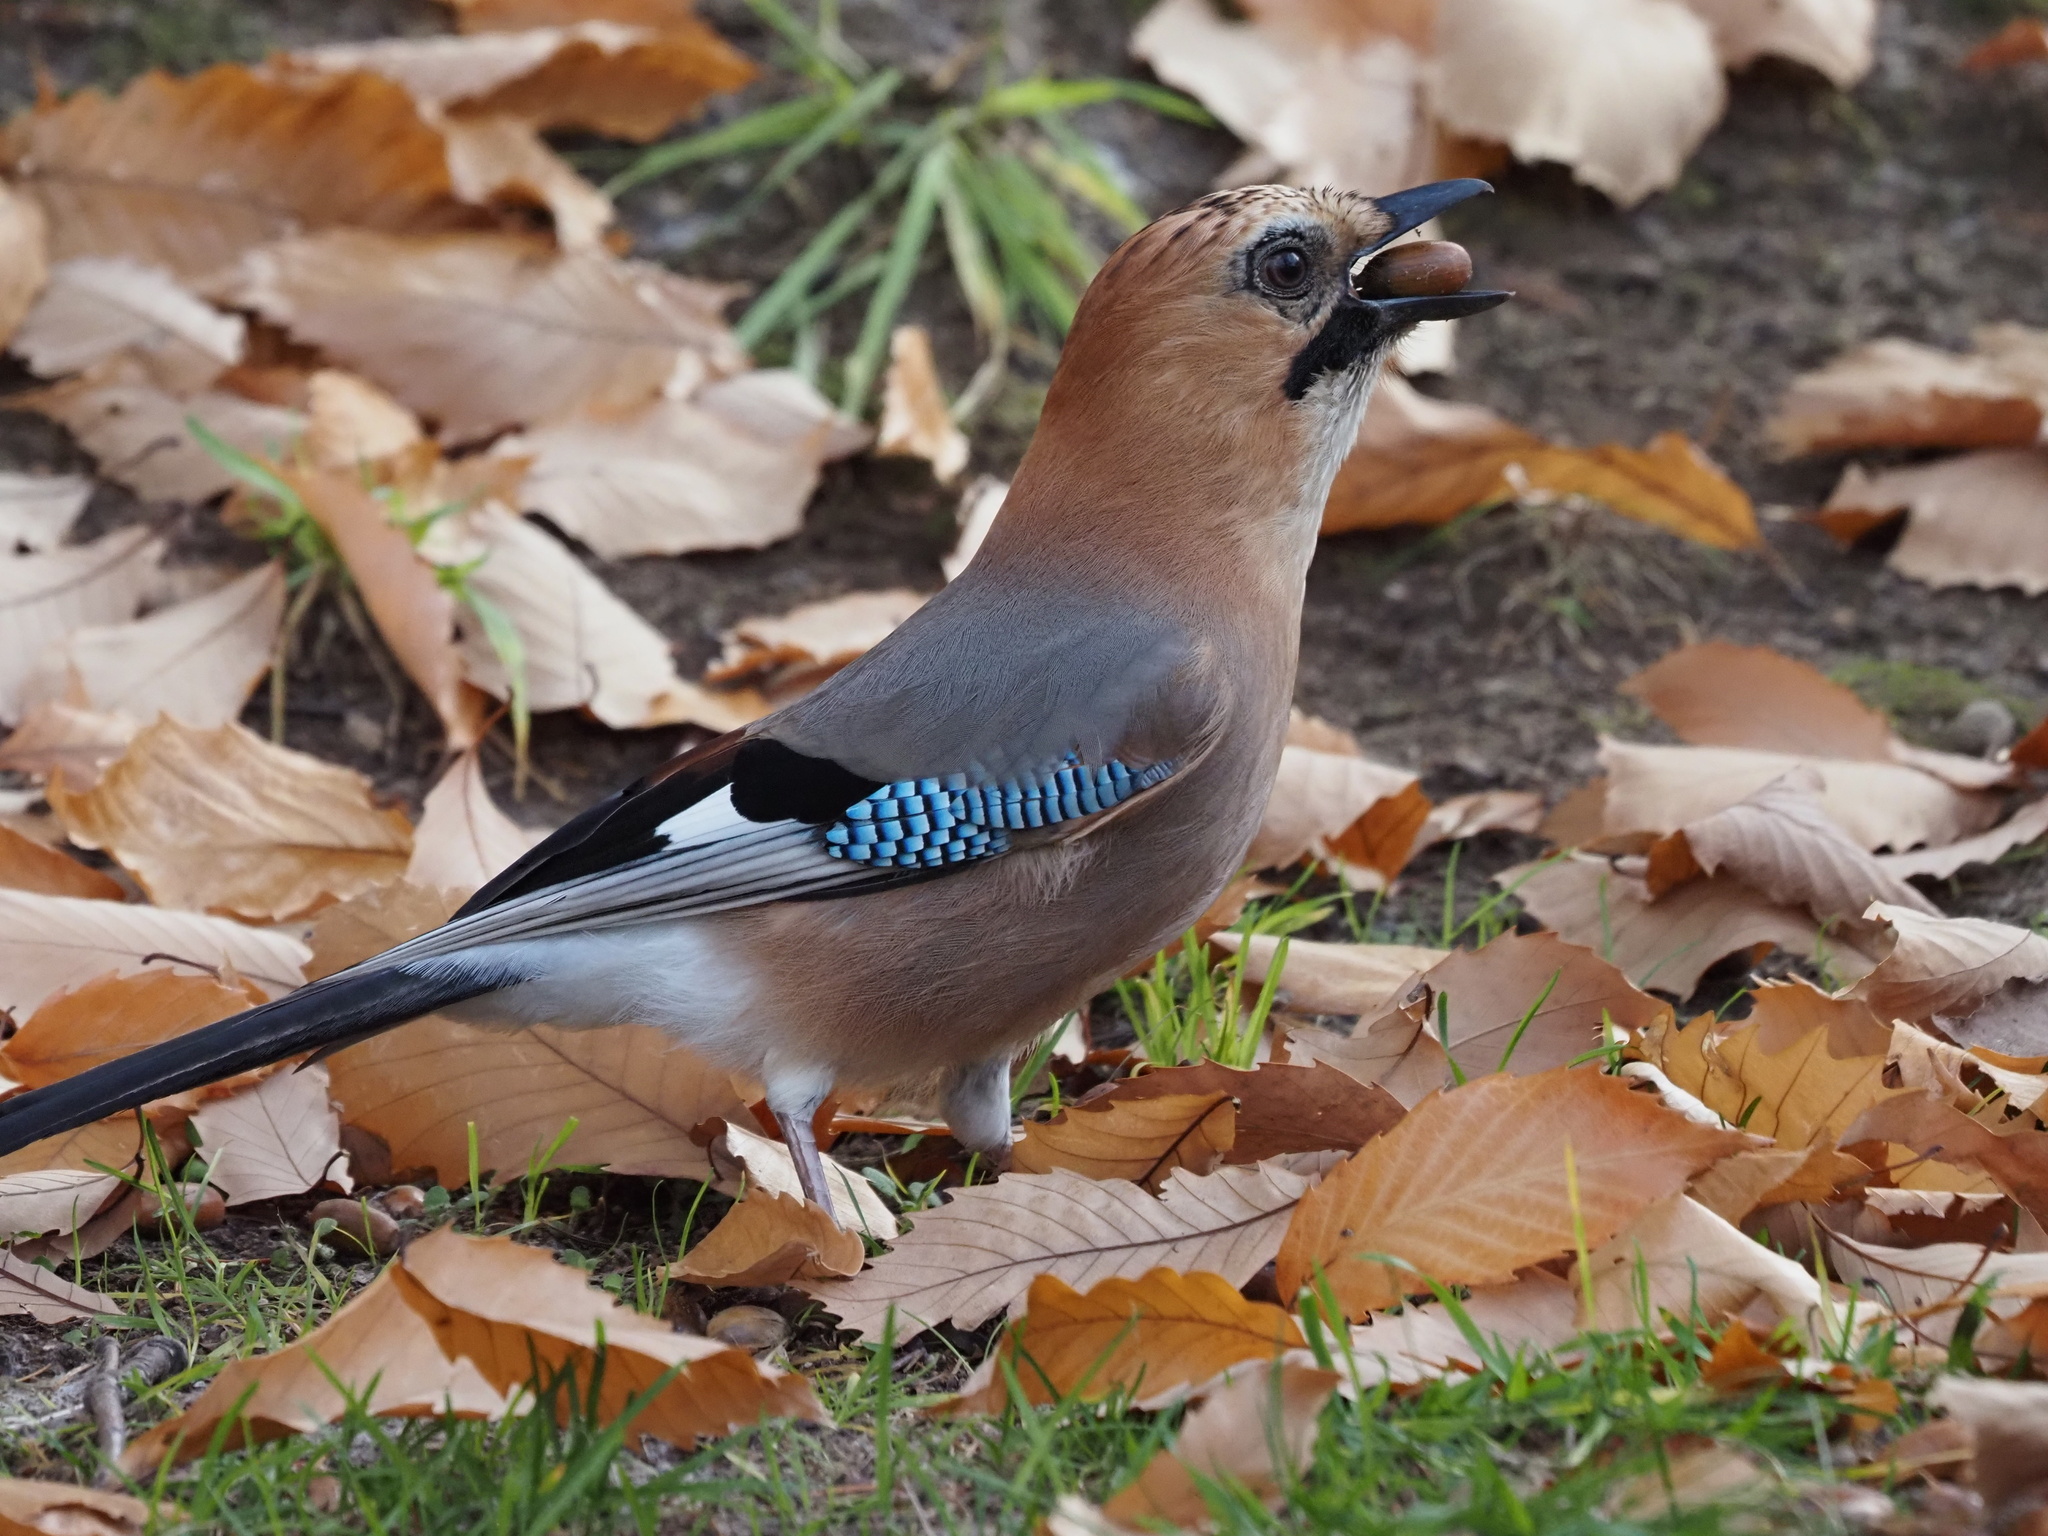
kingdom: Animalia
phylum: Chordata
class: Aves
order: Passeriformes
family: Corvidae
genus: Garrulus
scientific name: Garrulus glandarius
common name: Eurasian jay
